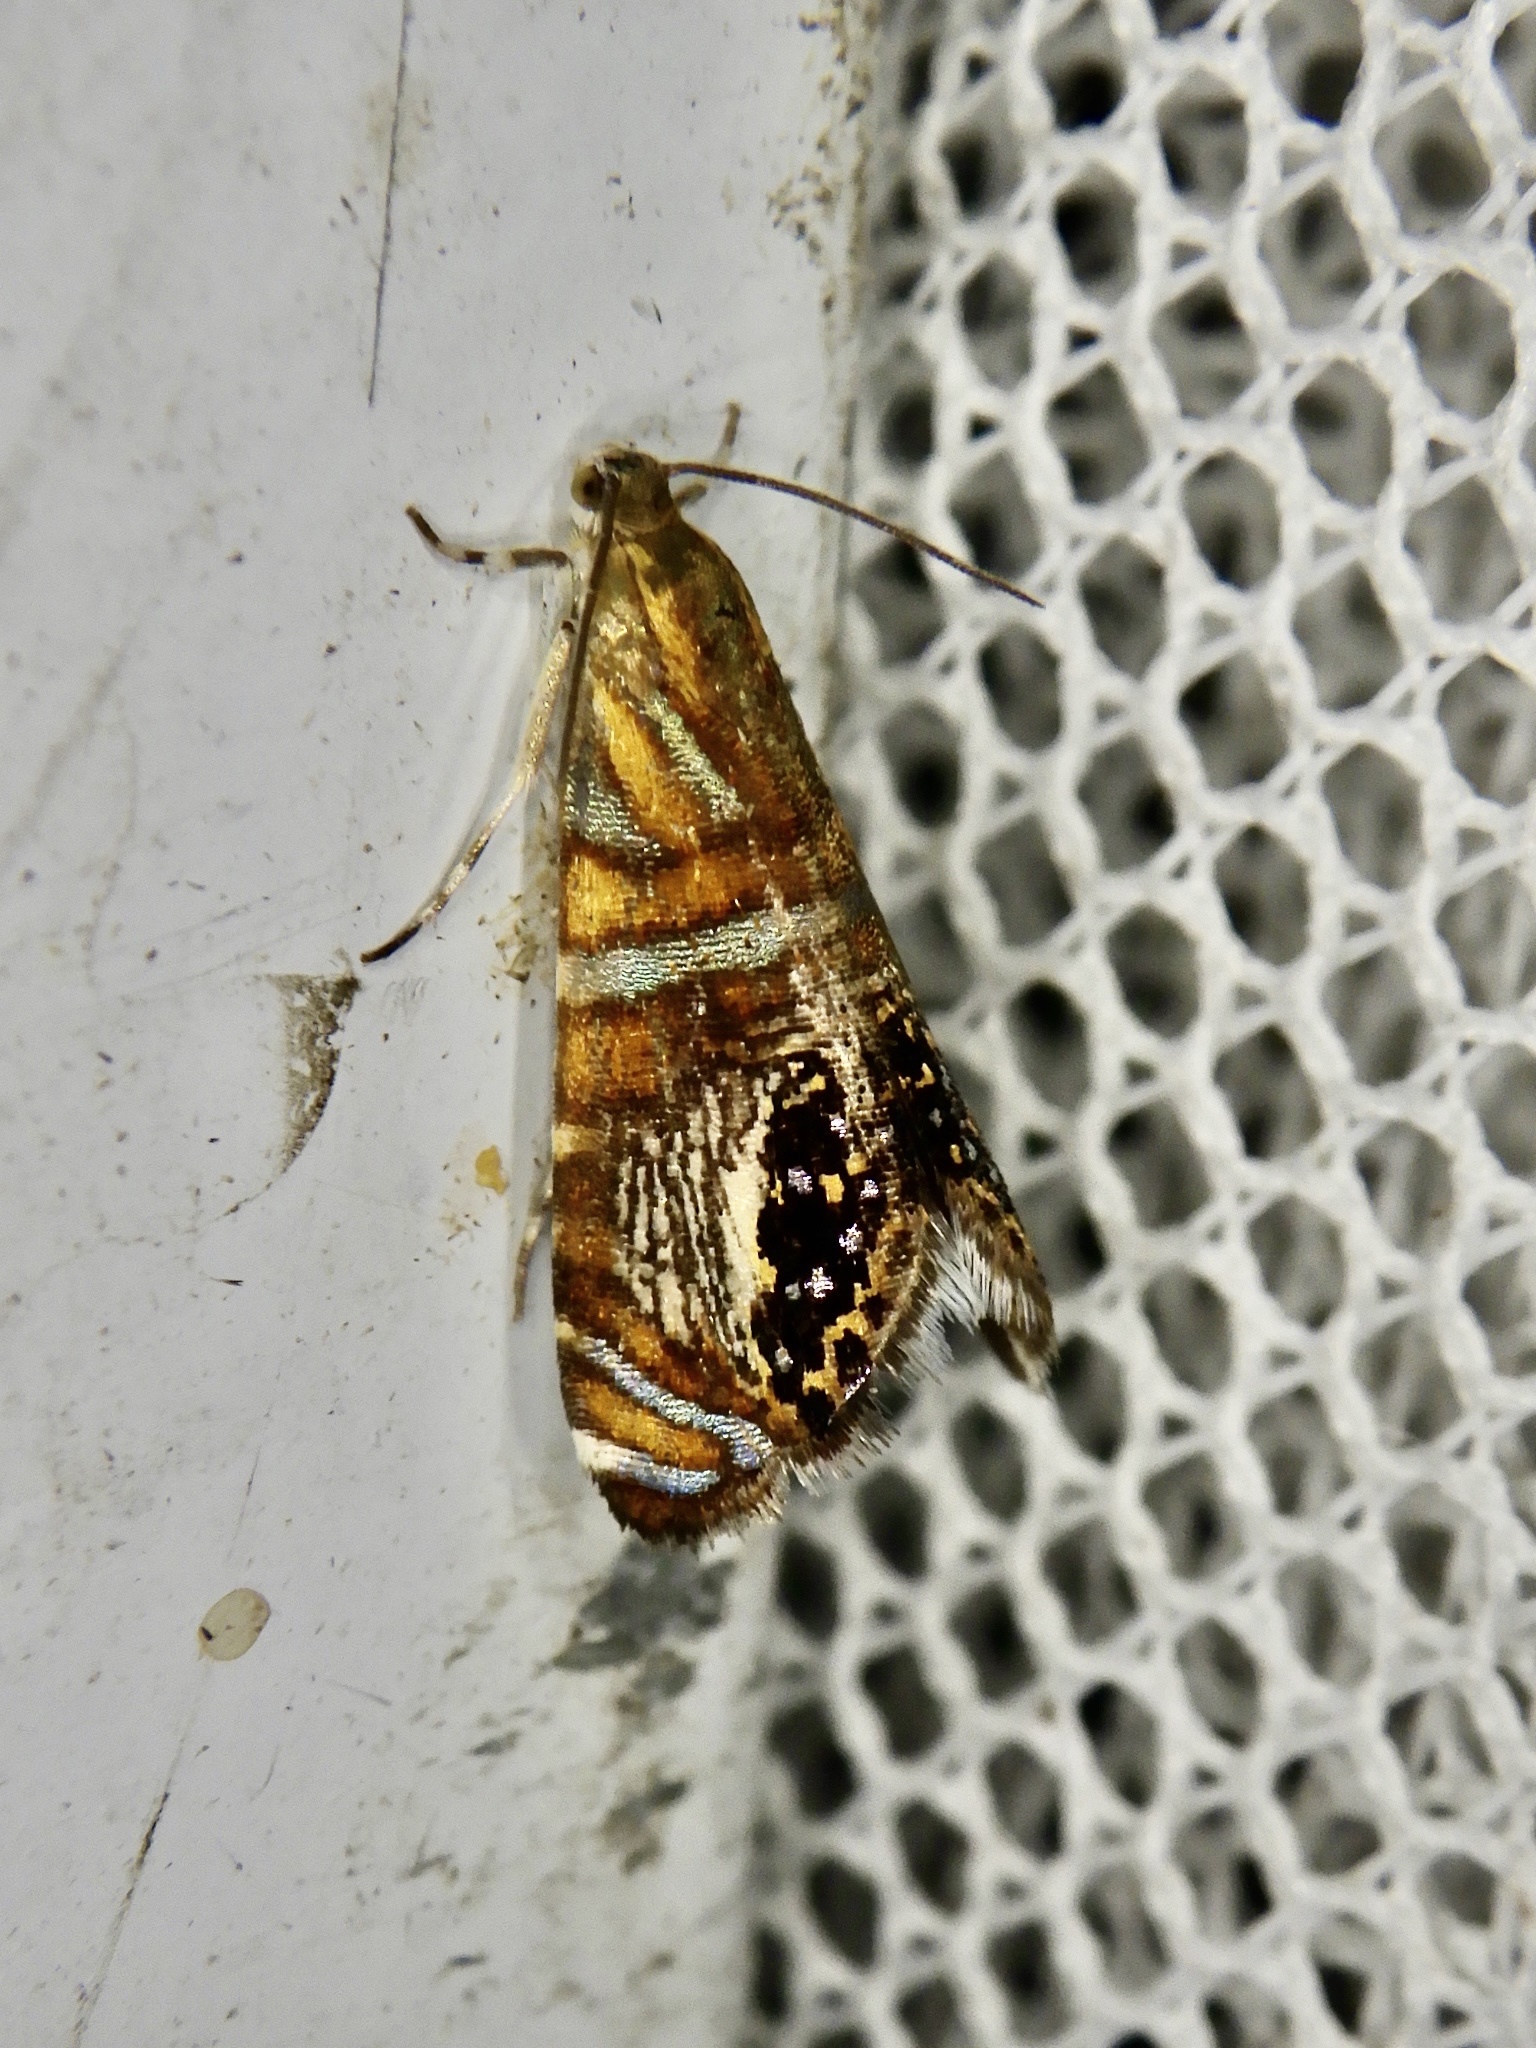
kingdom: Animalia
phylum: Arthropoda
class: Insecta
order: Lepidoptera
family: Tortricidae
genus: Thaumatographa
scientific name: Thaumatographa decoris
